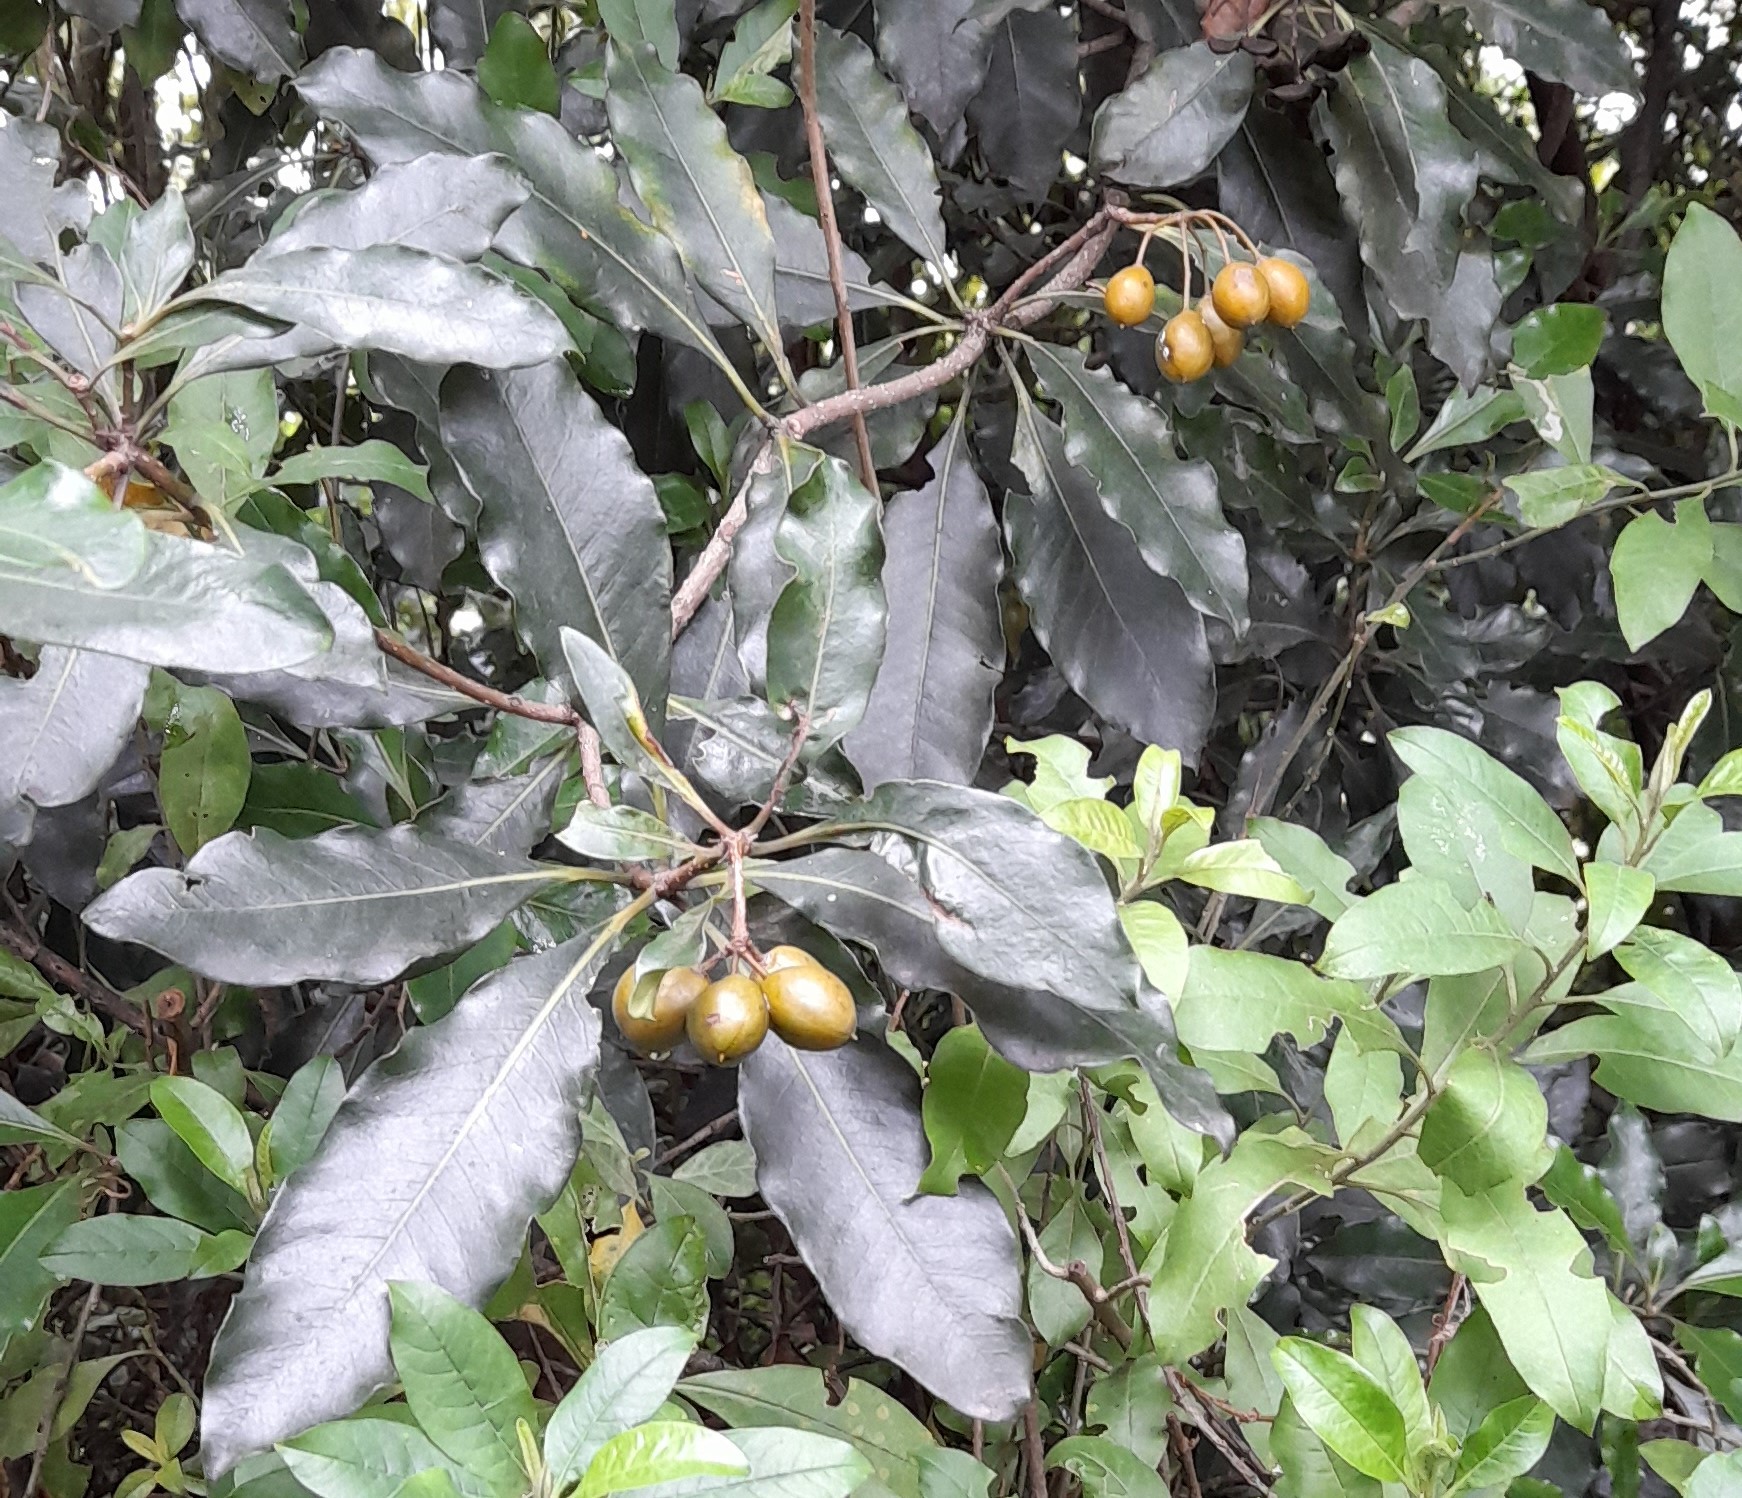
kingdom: Plantae
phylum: Tracheophyta
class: Magnoliopsida
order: Apiales
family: Pittosporaceae
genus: Pittosporum
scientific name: Pittosporum undulatum
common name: Australian cheesewood
